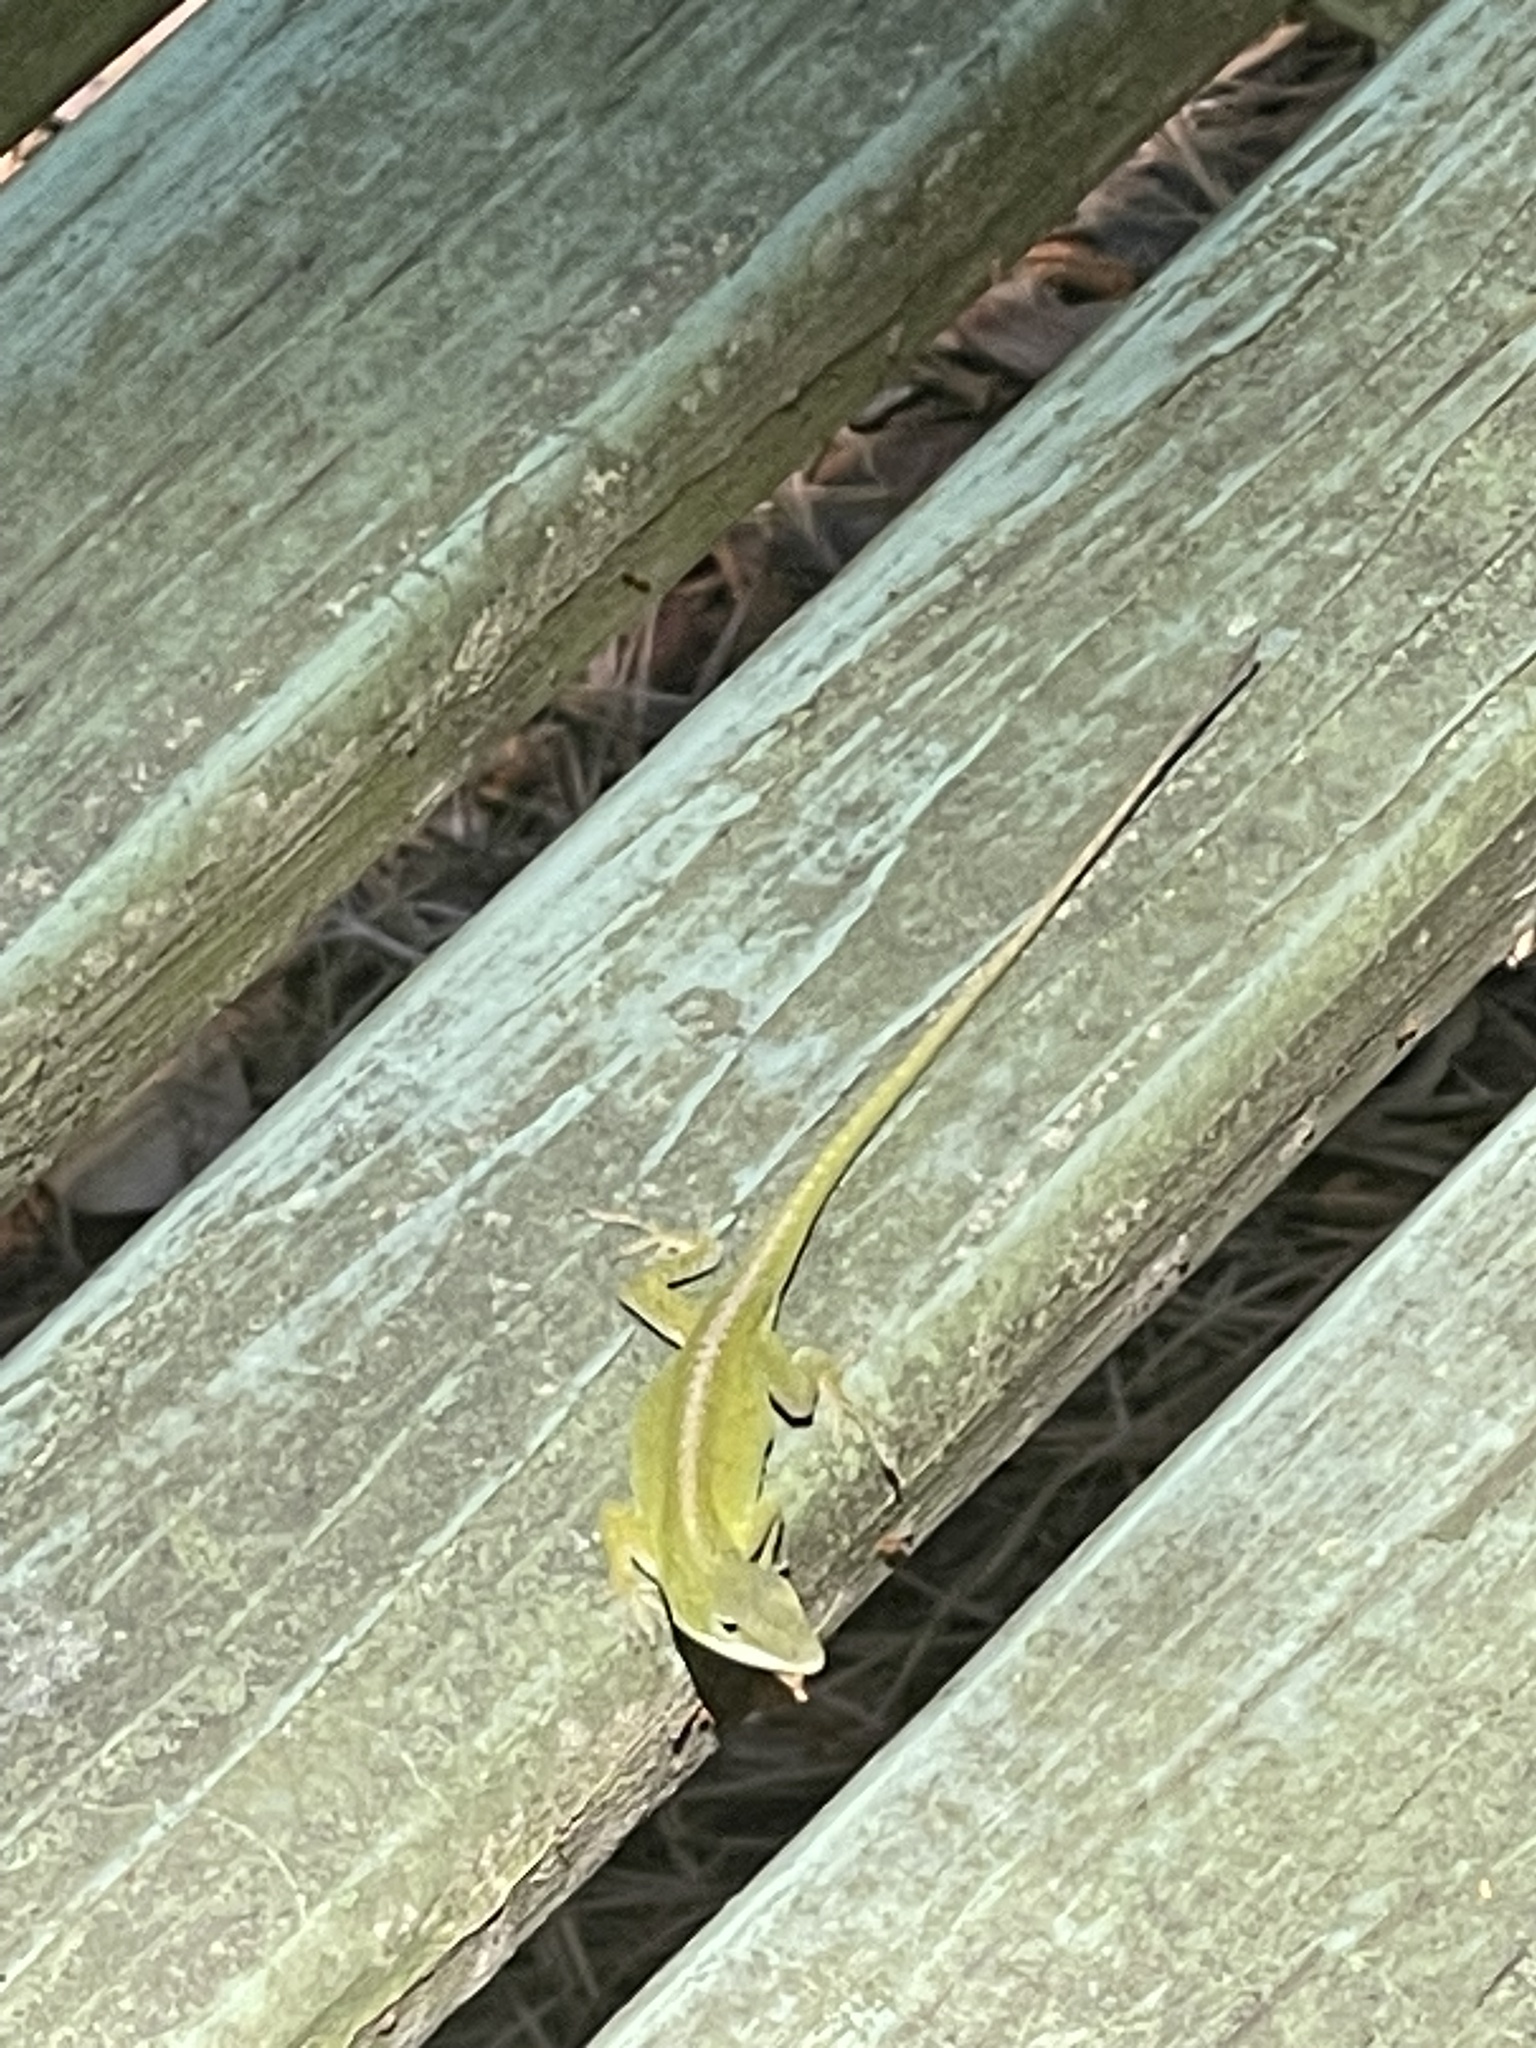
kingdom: Animalia
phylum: Chordata
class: Squamata
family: Dactyloidae
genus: Anolis
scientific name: Anolis carolinensis
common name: Green anole
